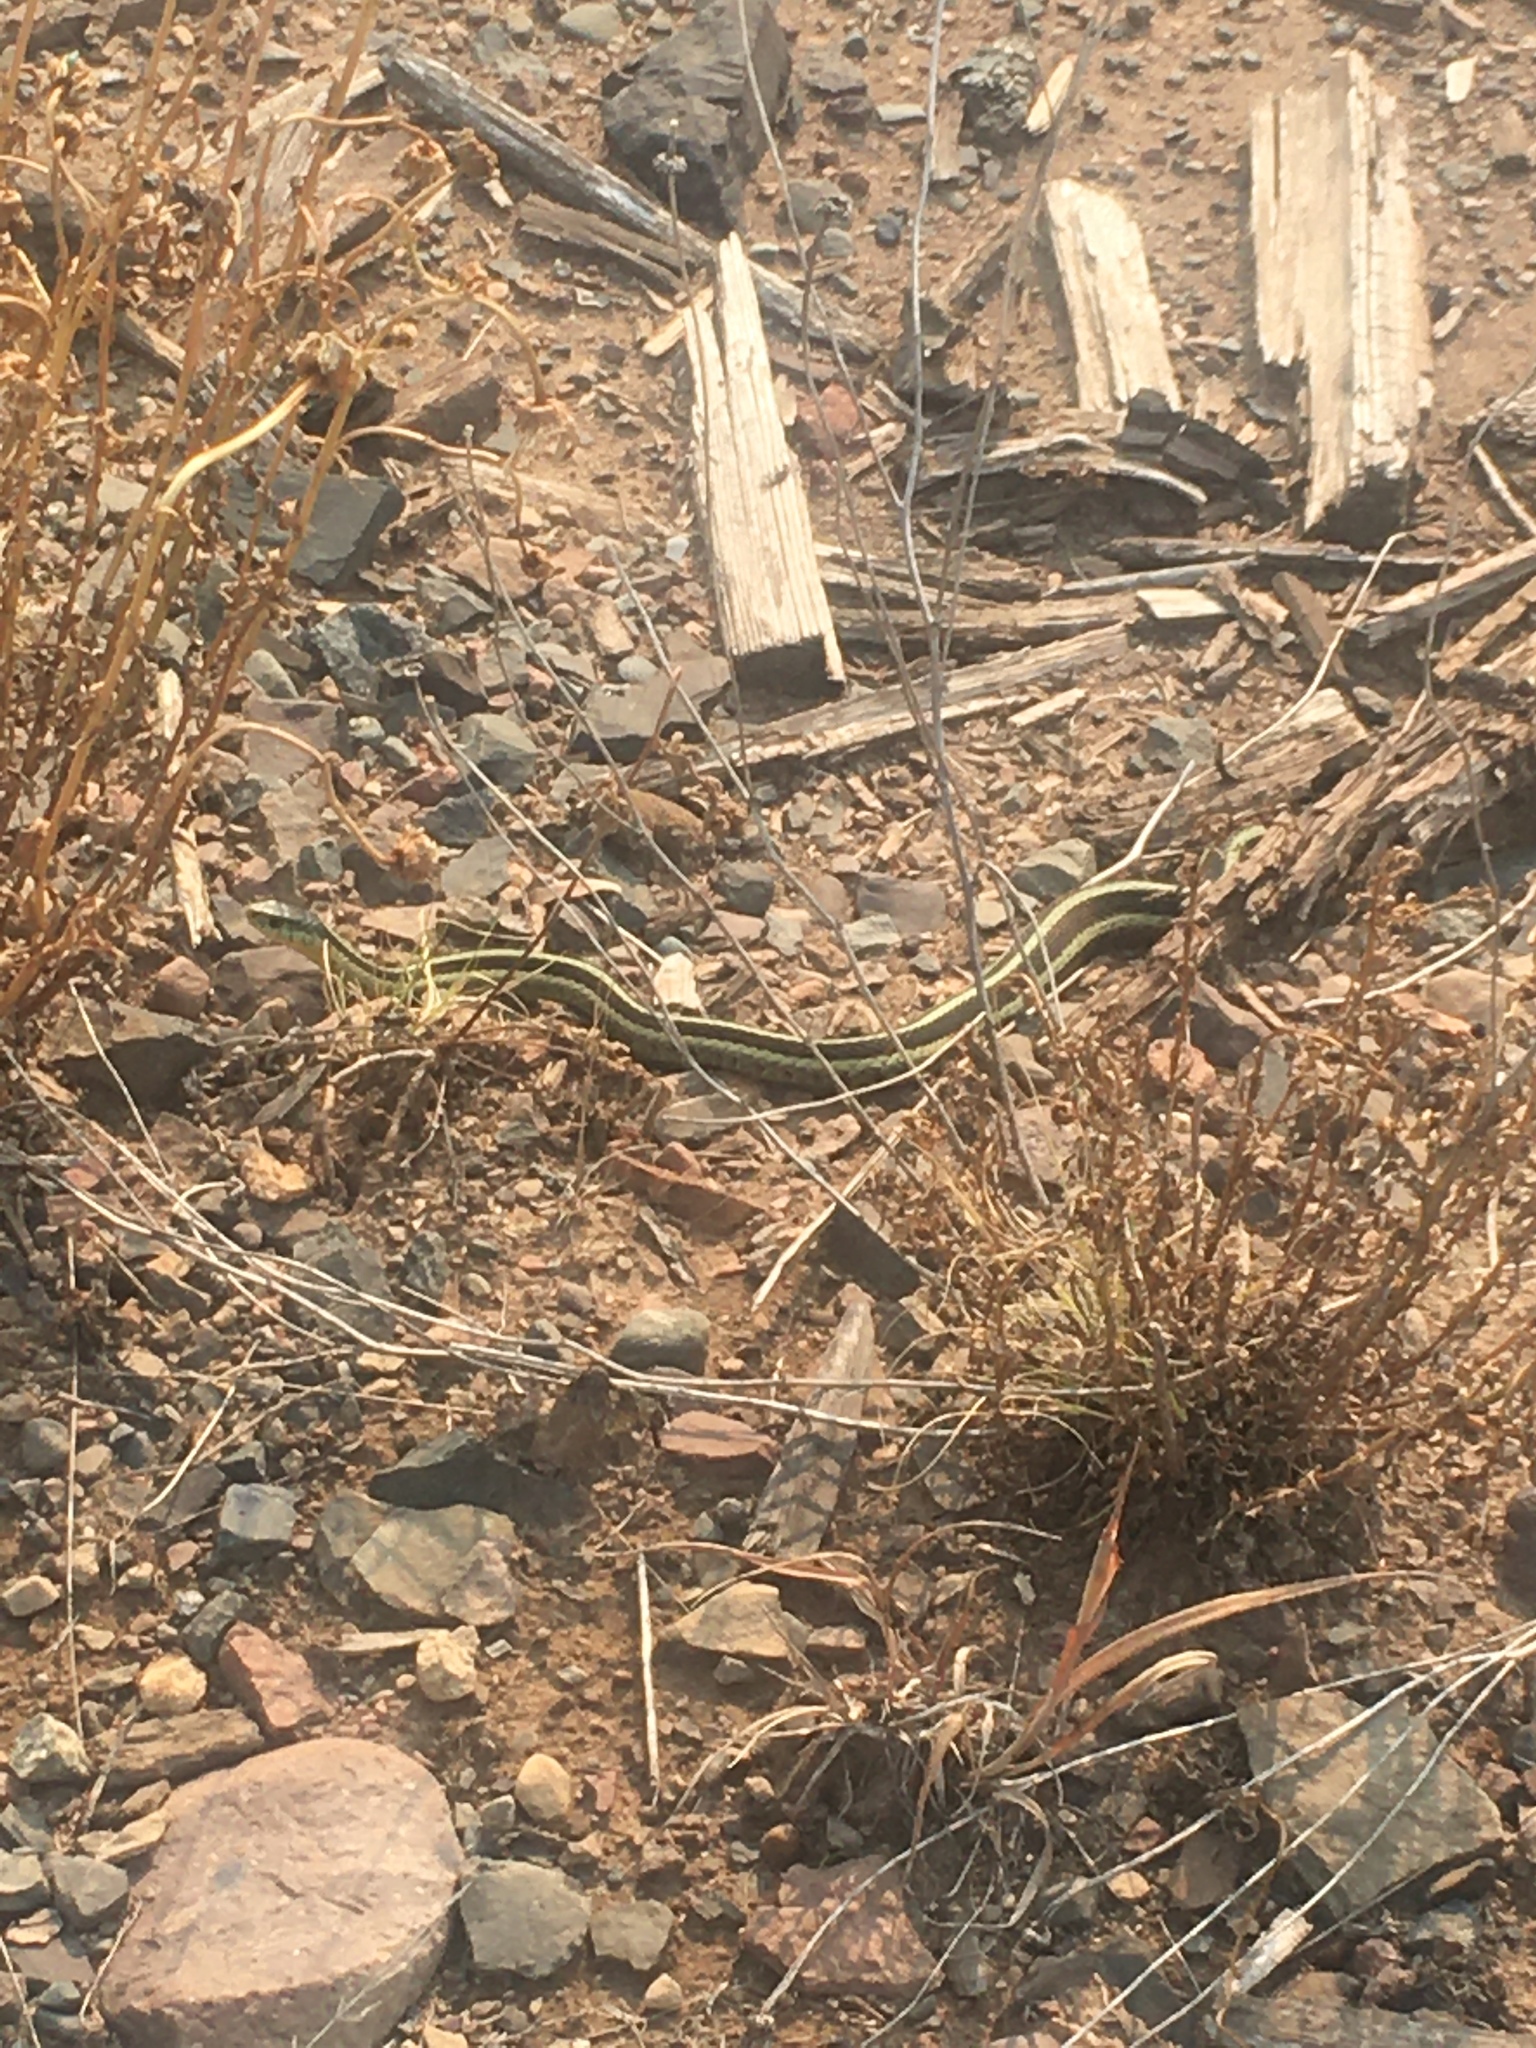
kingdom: Animalia
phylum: Chordata
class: Squamata
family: Colubridae
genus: Thamnophis
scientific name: Thamnophis sirtalis
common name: Common garter snake
